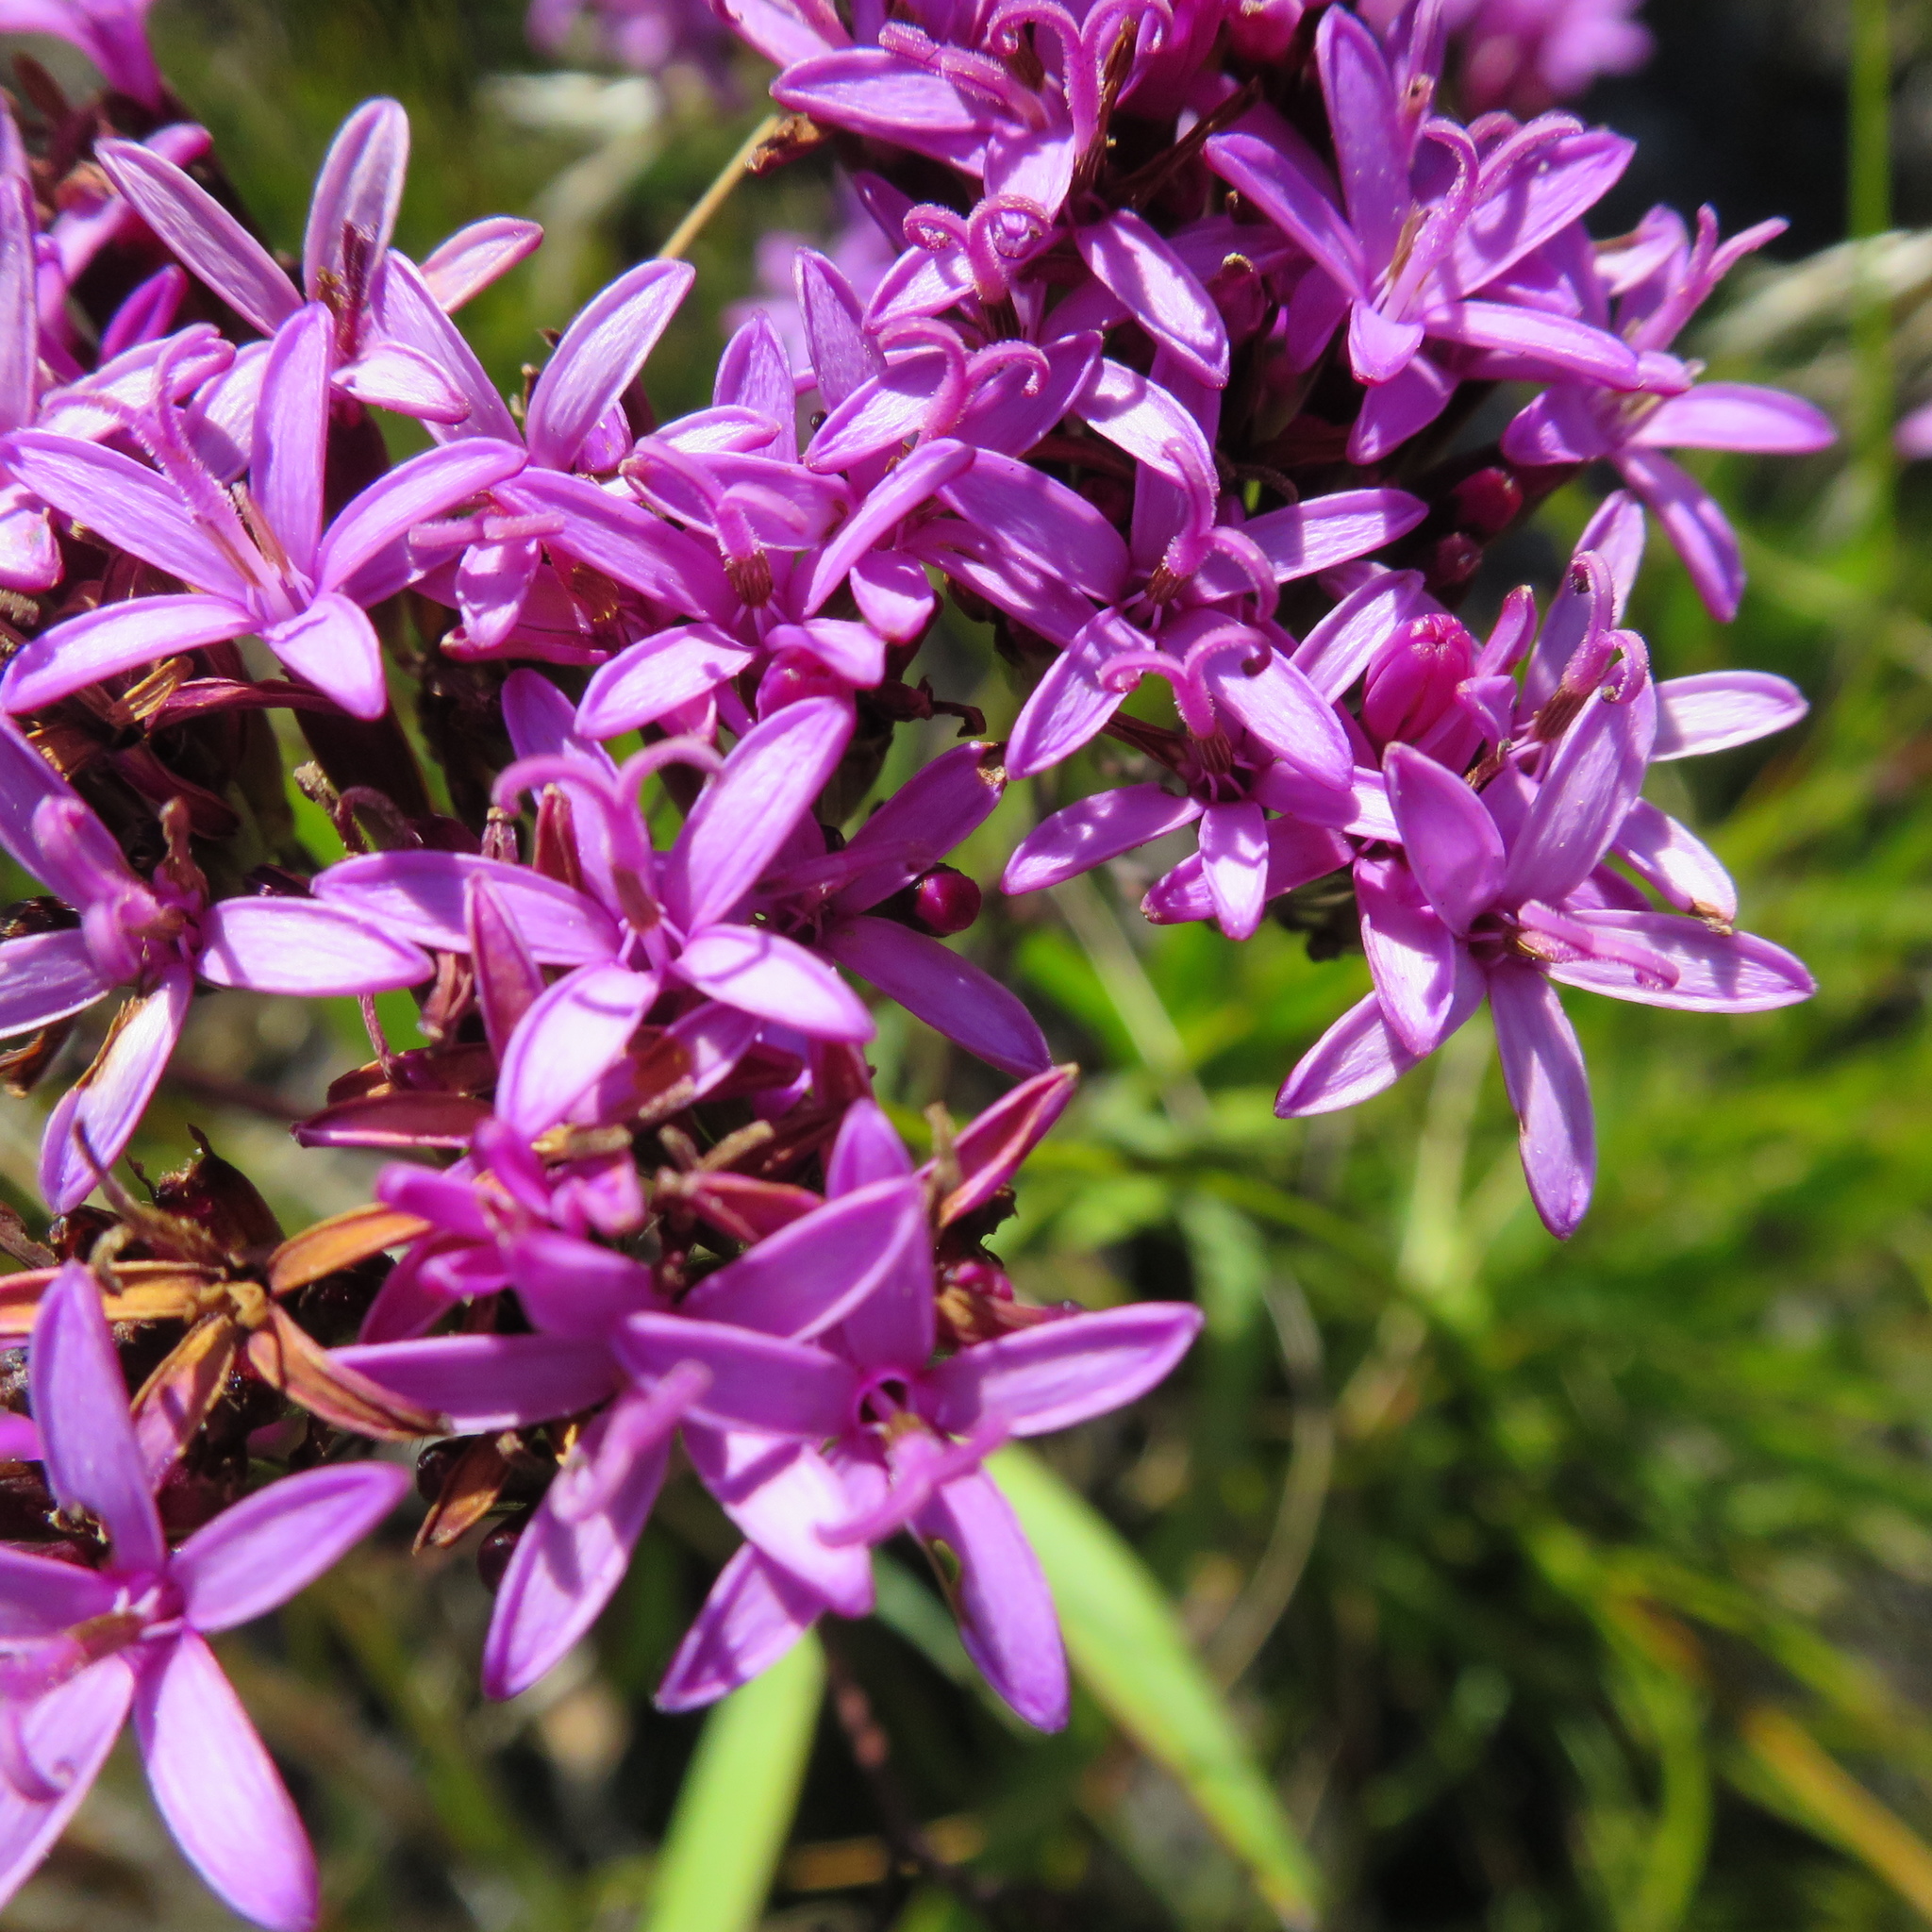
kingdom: Plantae
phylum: Tracheophyta
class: Magnoliopsida
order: Asterales
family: Asteraceae
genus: Corymbium
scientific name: Corymbium africanum
